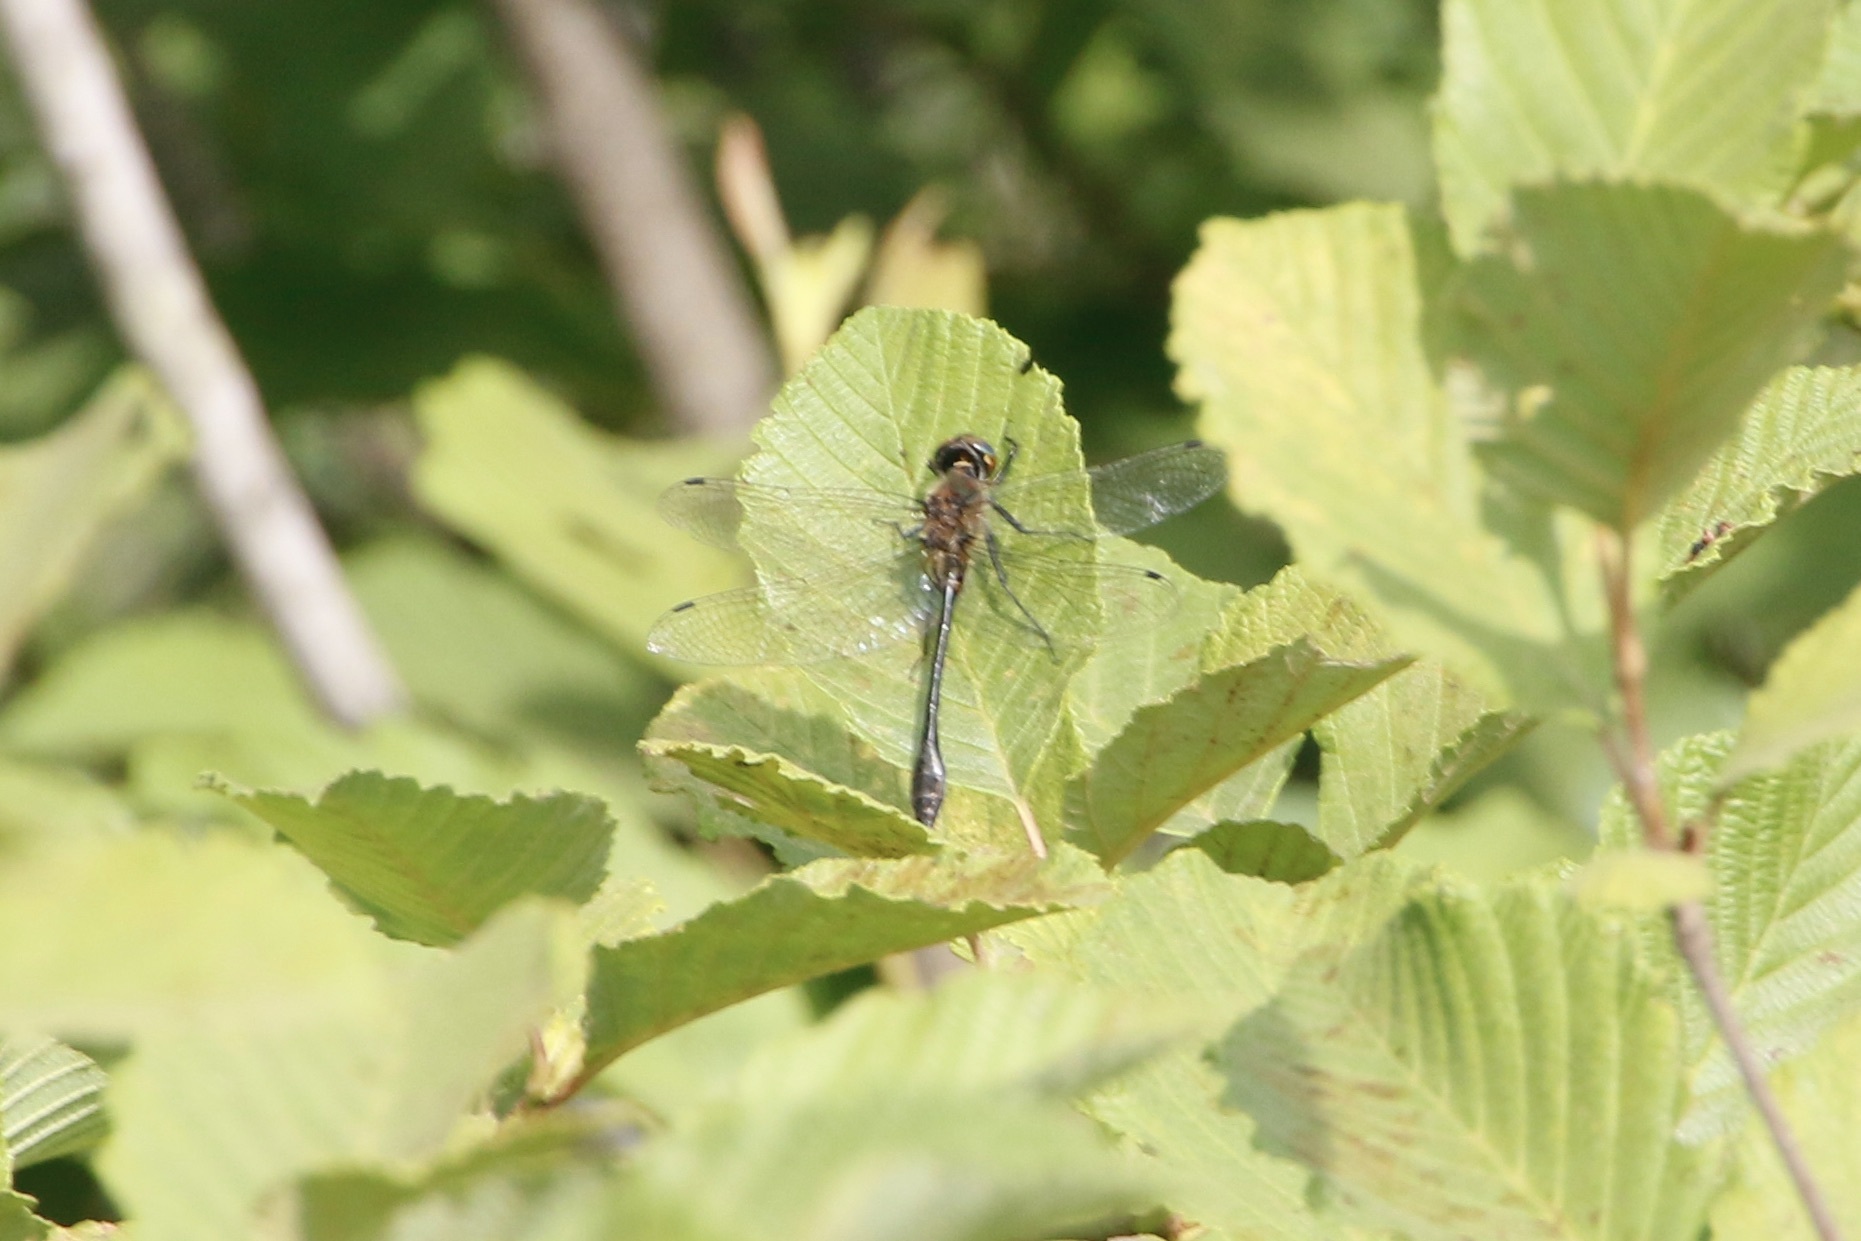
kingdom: Animalia
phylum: Arthropoda
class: Insecta
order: Odonata
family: Corduliidae
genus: Dorocordulia
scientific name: Dorocordulia libera
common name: Racket-tailed emerald
